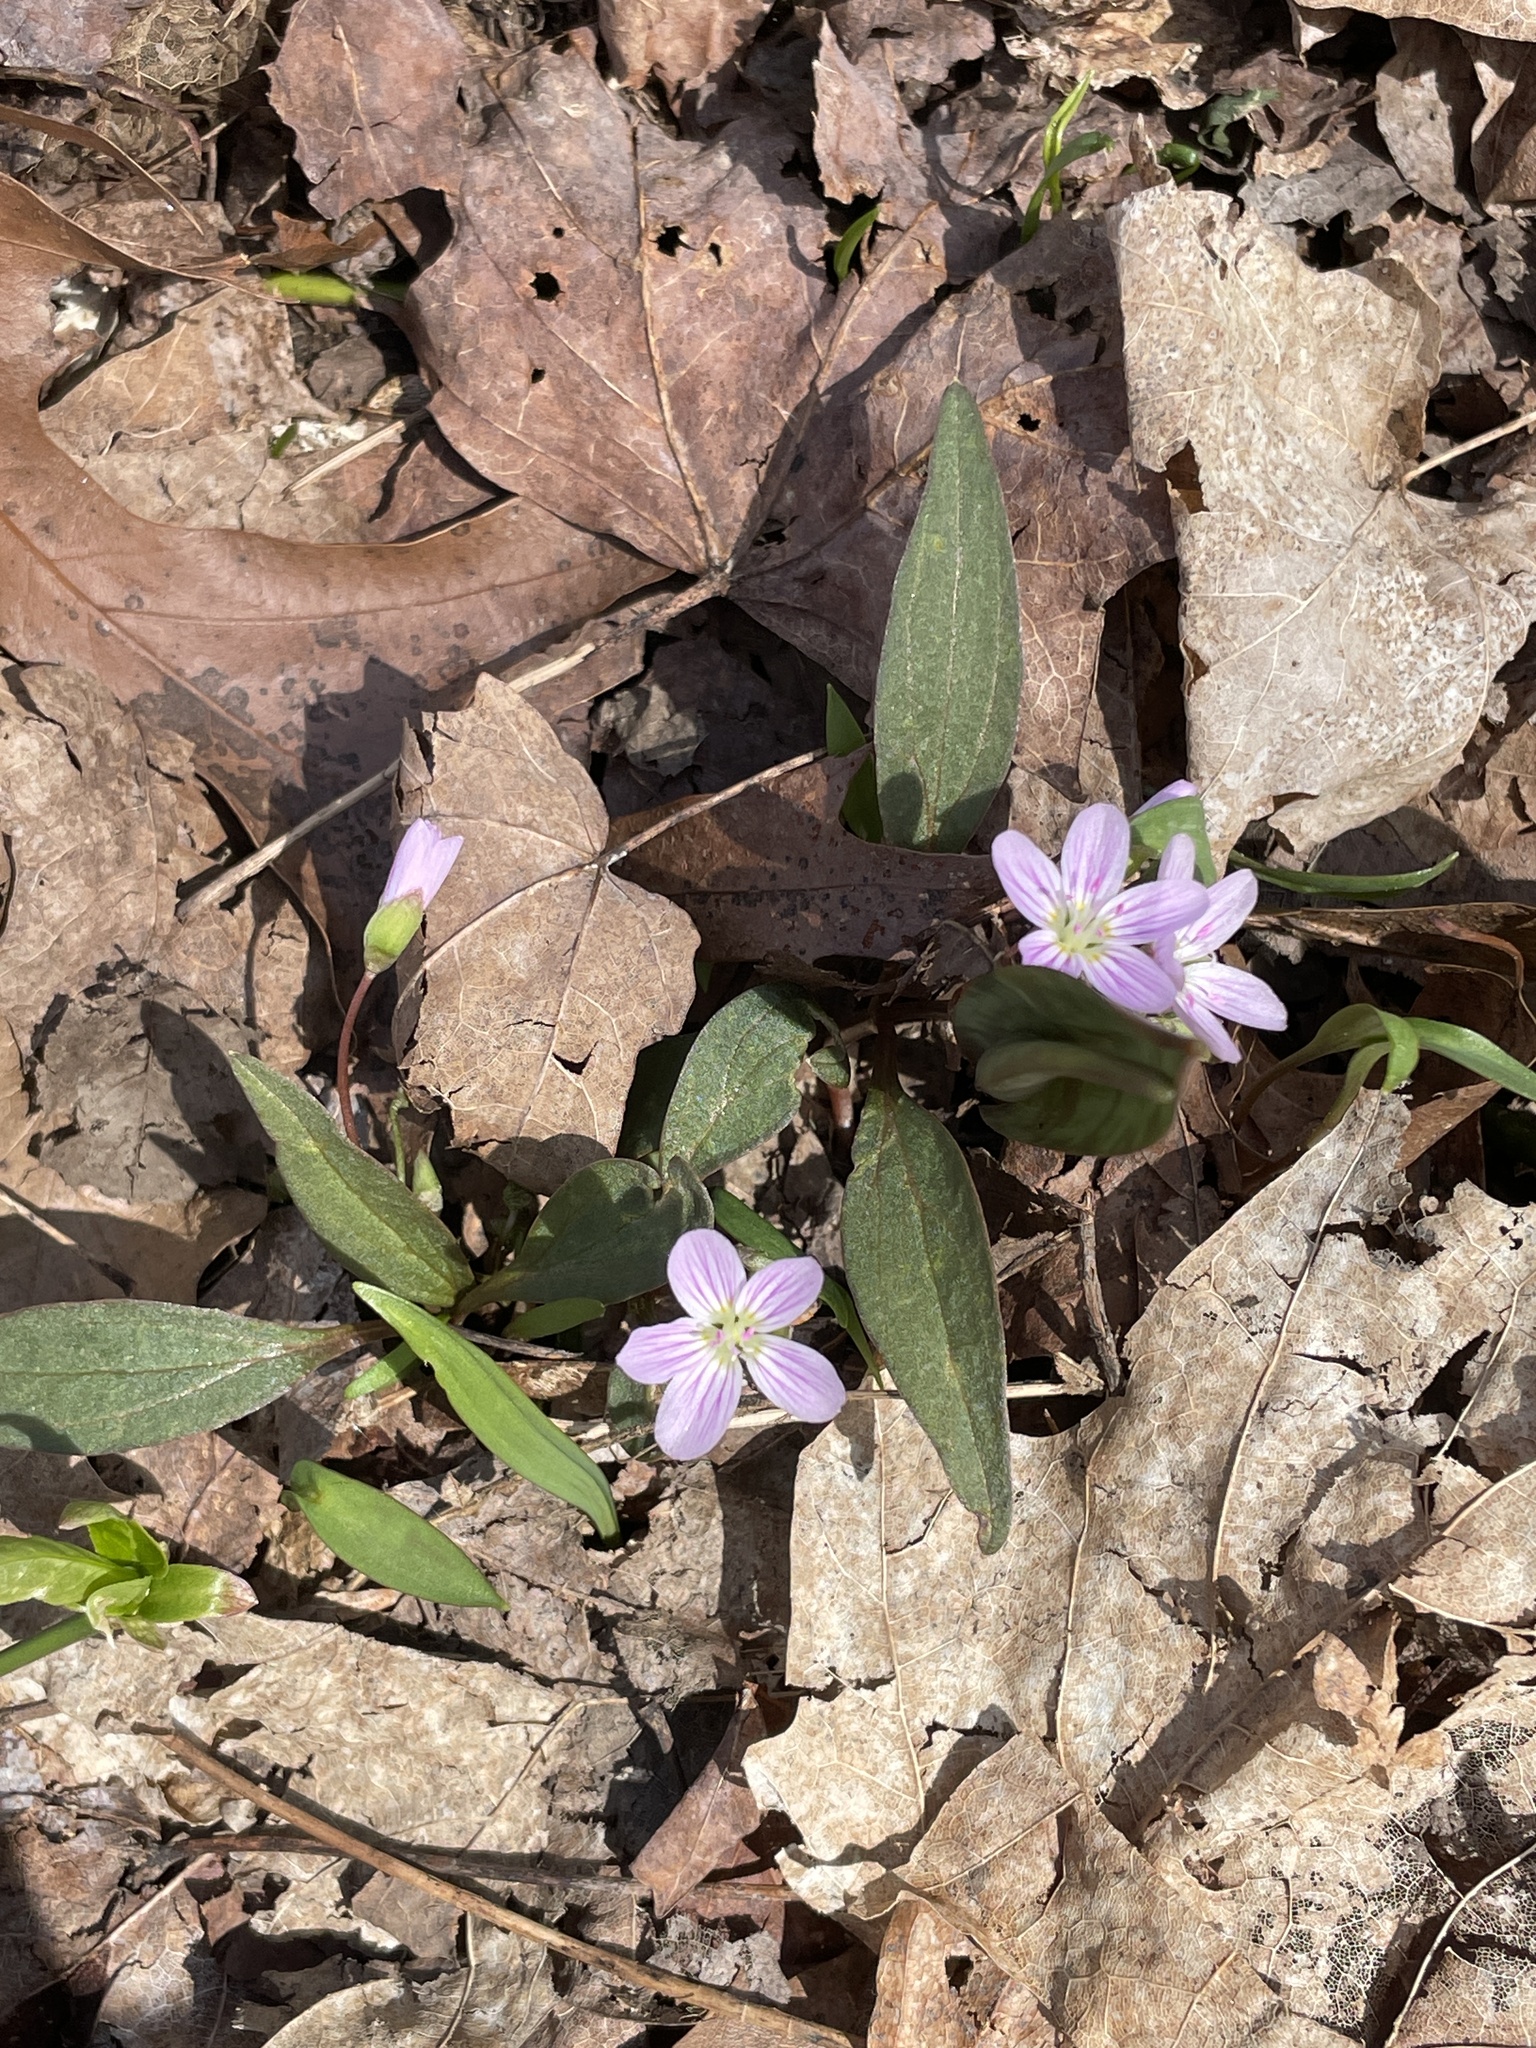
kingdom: Plantae
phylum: Tracheophyta
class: Magnoliopsida
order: Caryophyllales
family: Montiaceae
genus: Claytonia
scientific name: Claytonia caroliniana
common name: Carolina spring beauty
